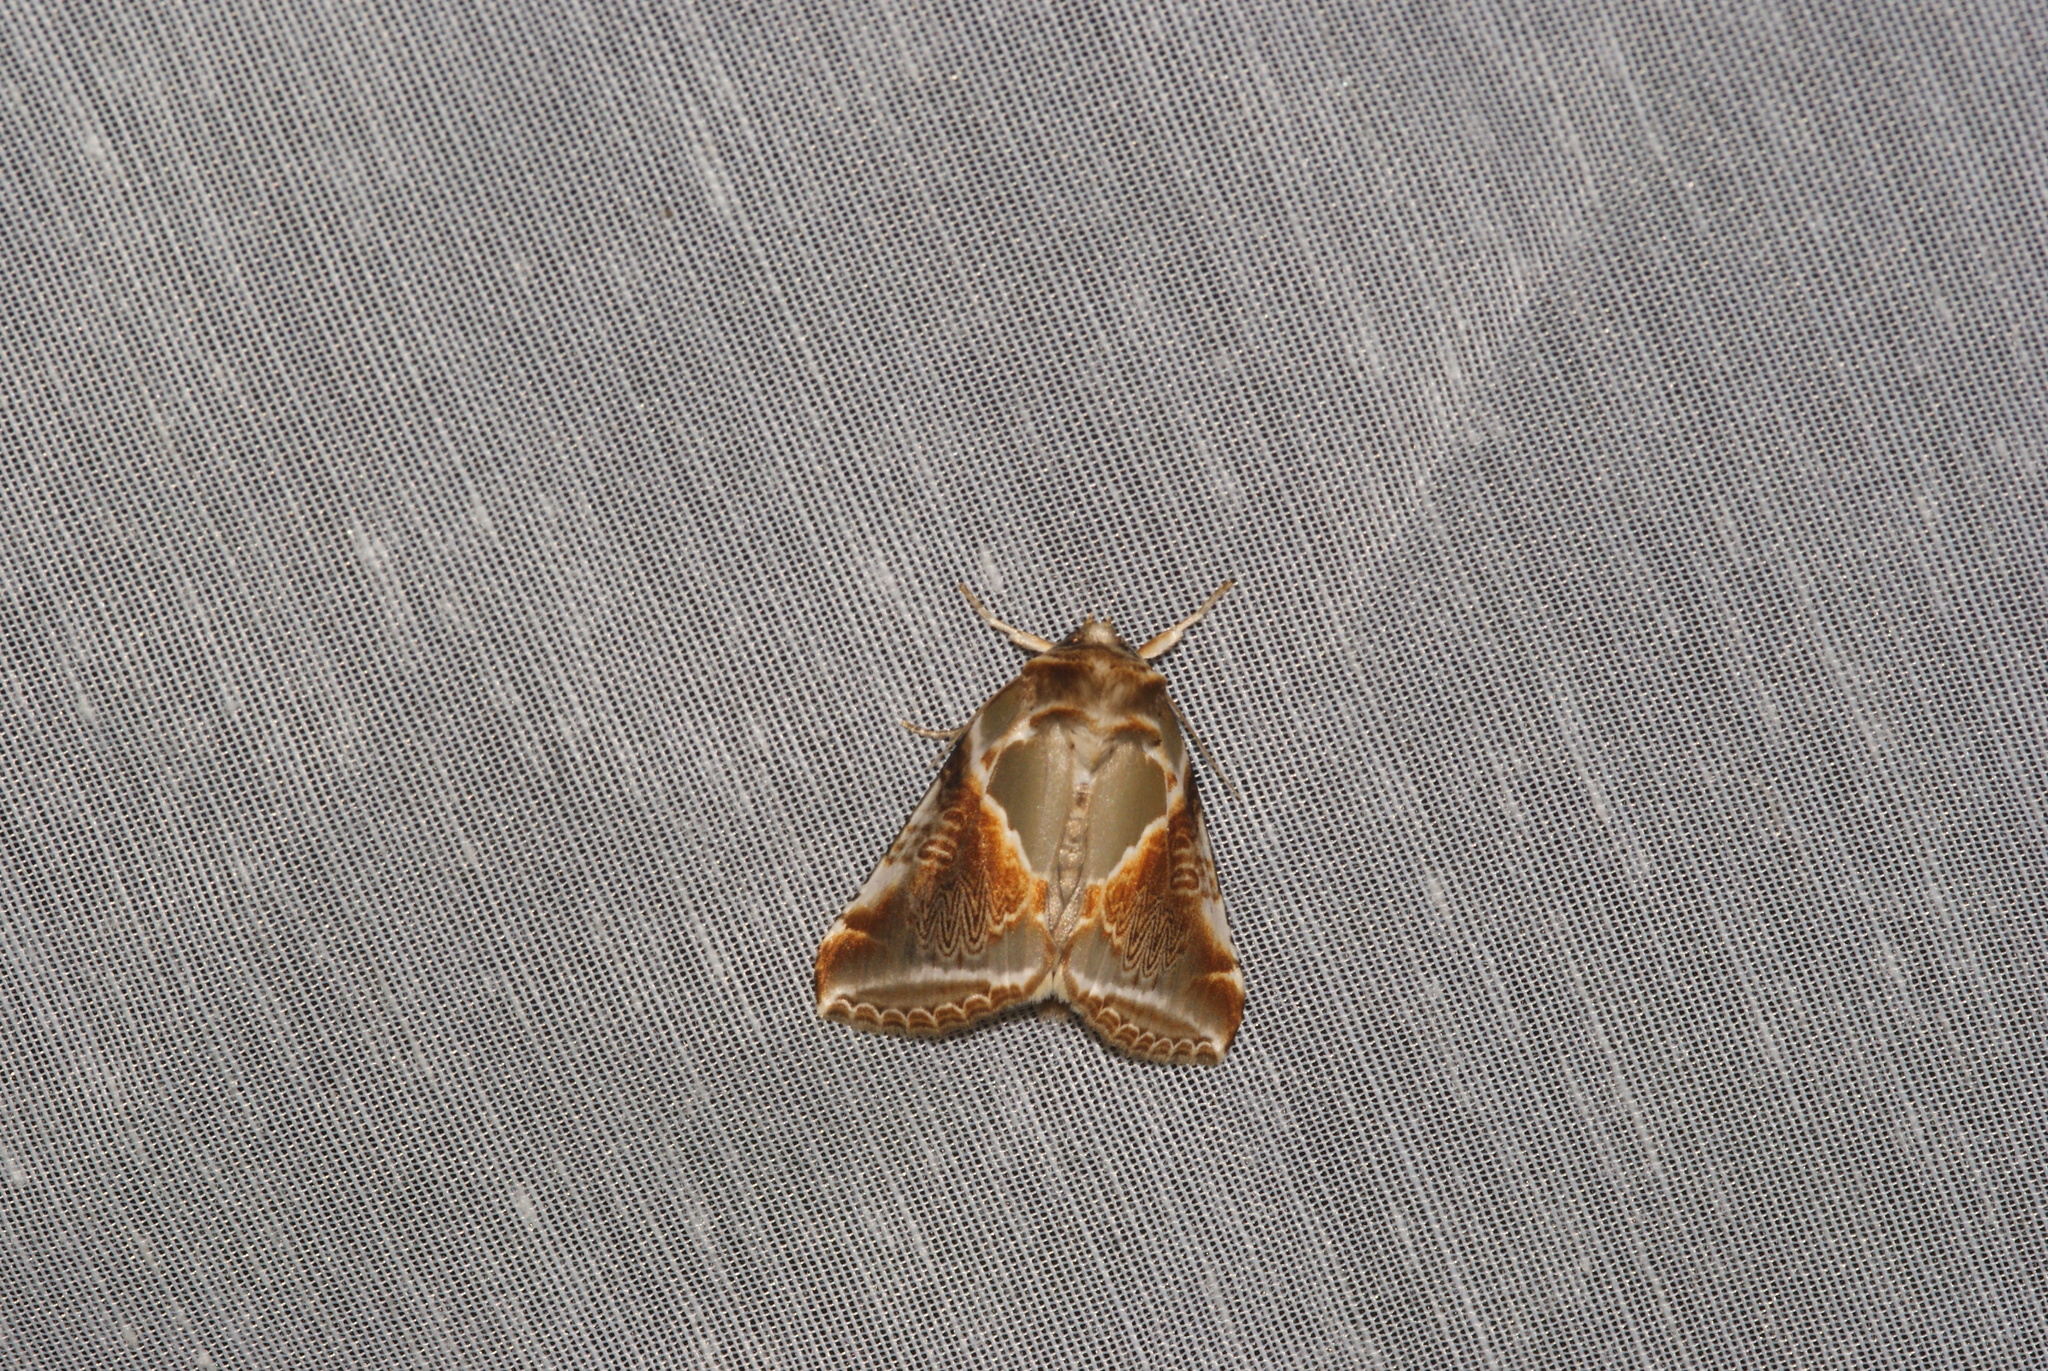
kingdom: Animalia
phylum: Arthropoda
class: Insecta
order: Lepidoptera
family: Drepanidae
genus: Habrosyne
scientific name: Habrosyne pyritoides
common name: Buff arches
